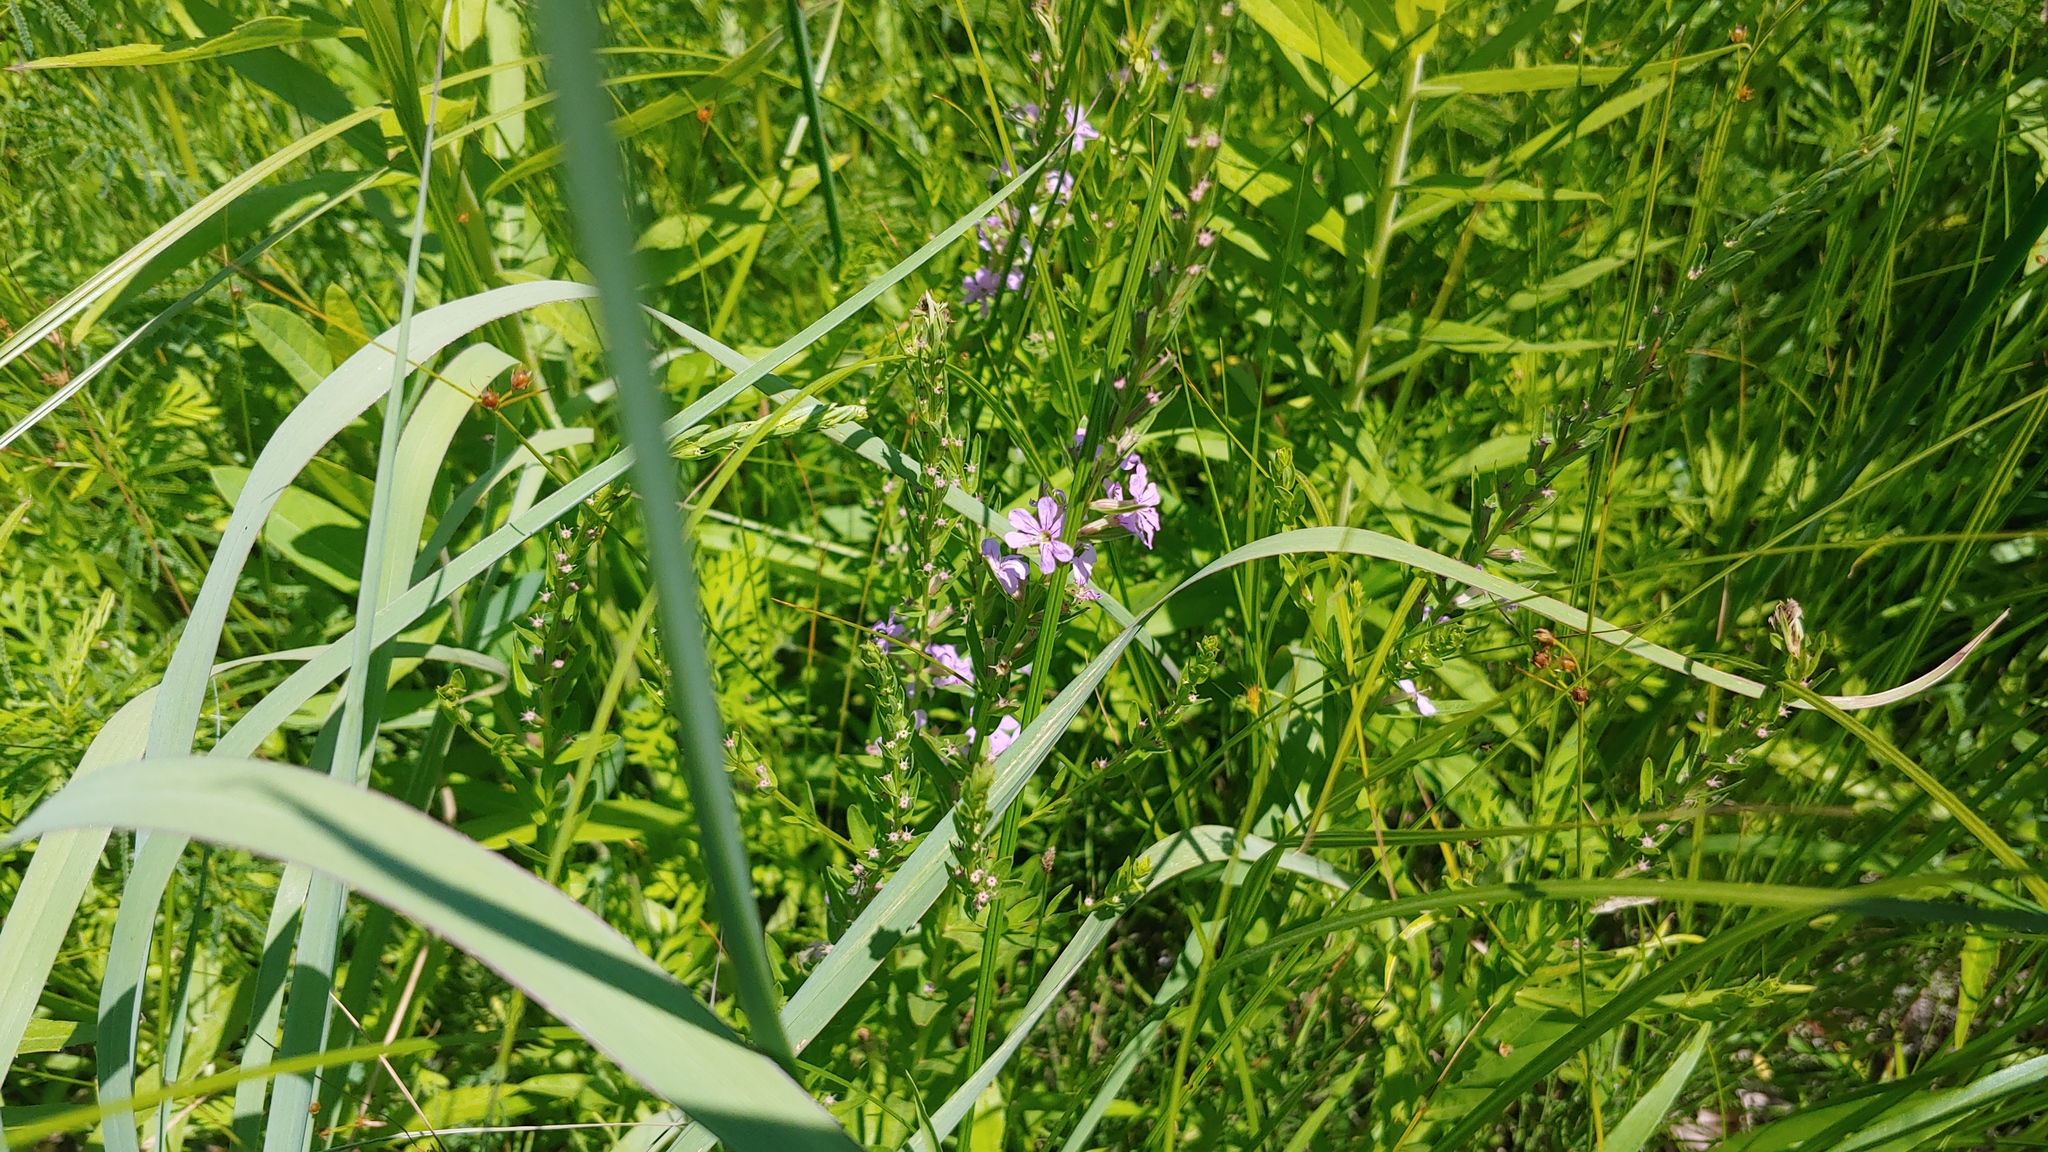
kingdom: Plantae
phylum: Tracheophyta
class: Magnoliopsida
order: Myrtales
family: Lythraceae
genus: Lythrum
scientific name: Lythrum alatum
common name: Winged loosestrife
